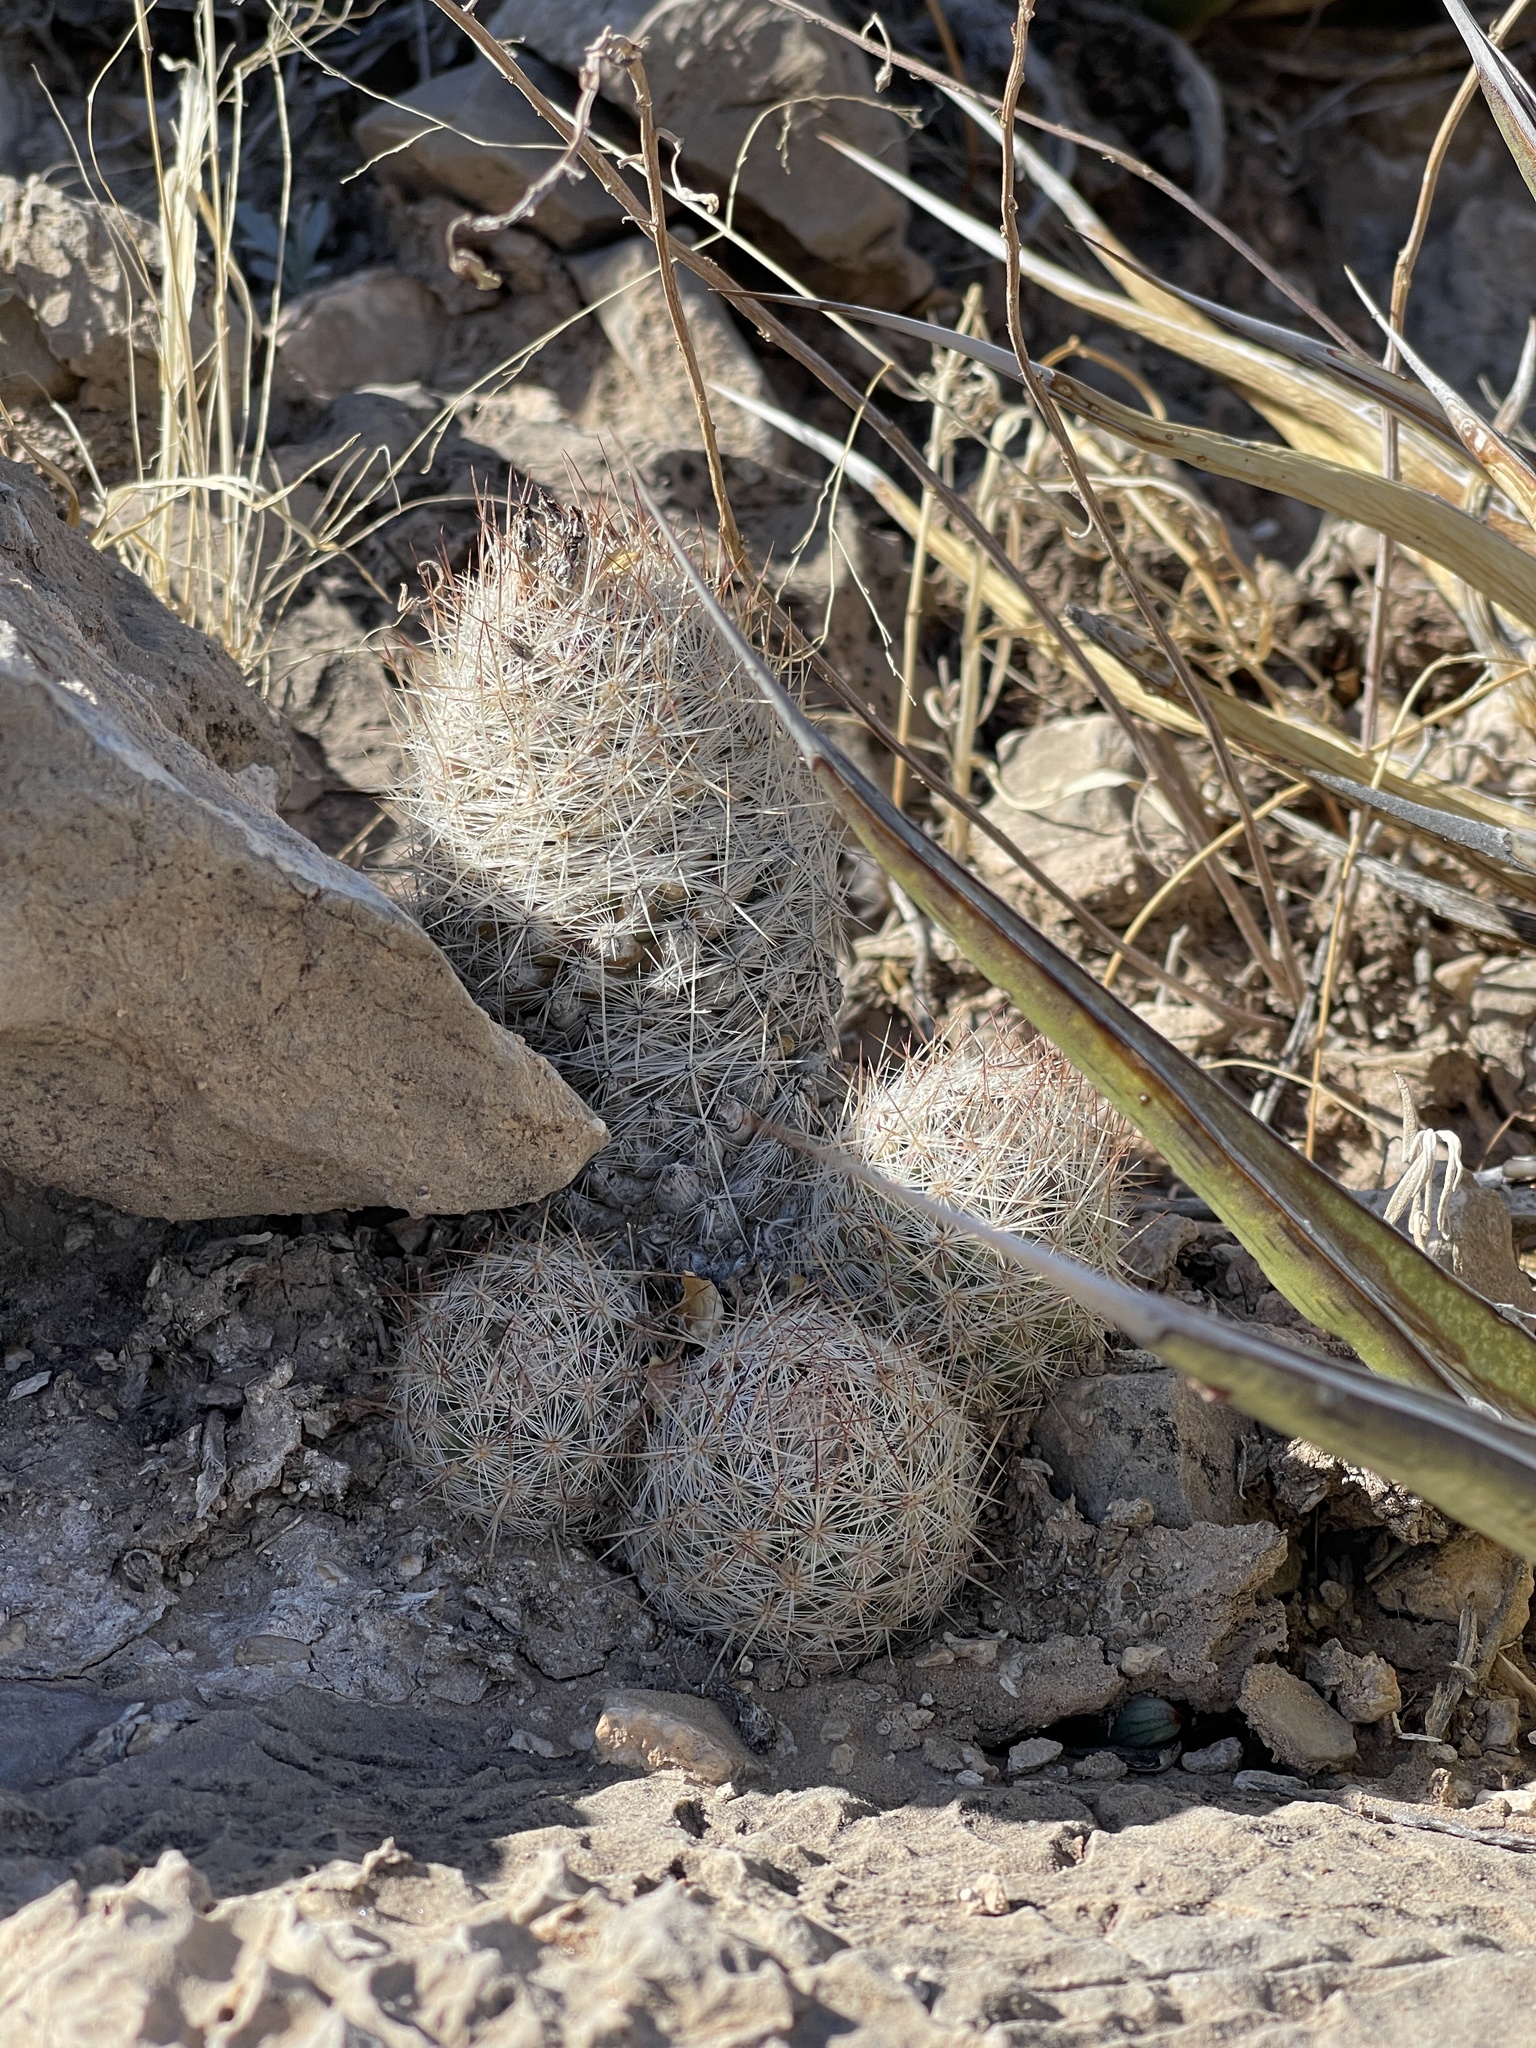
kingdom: Plantae
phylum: Tracheophyta
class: Magnoliopsida
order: Caryophyllales
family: Cactaceae
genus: Pelecyphora
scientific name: Pelecyphora tuberculosa
